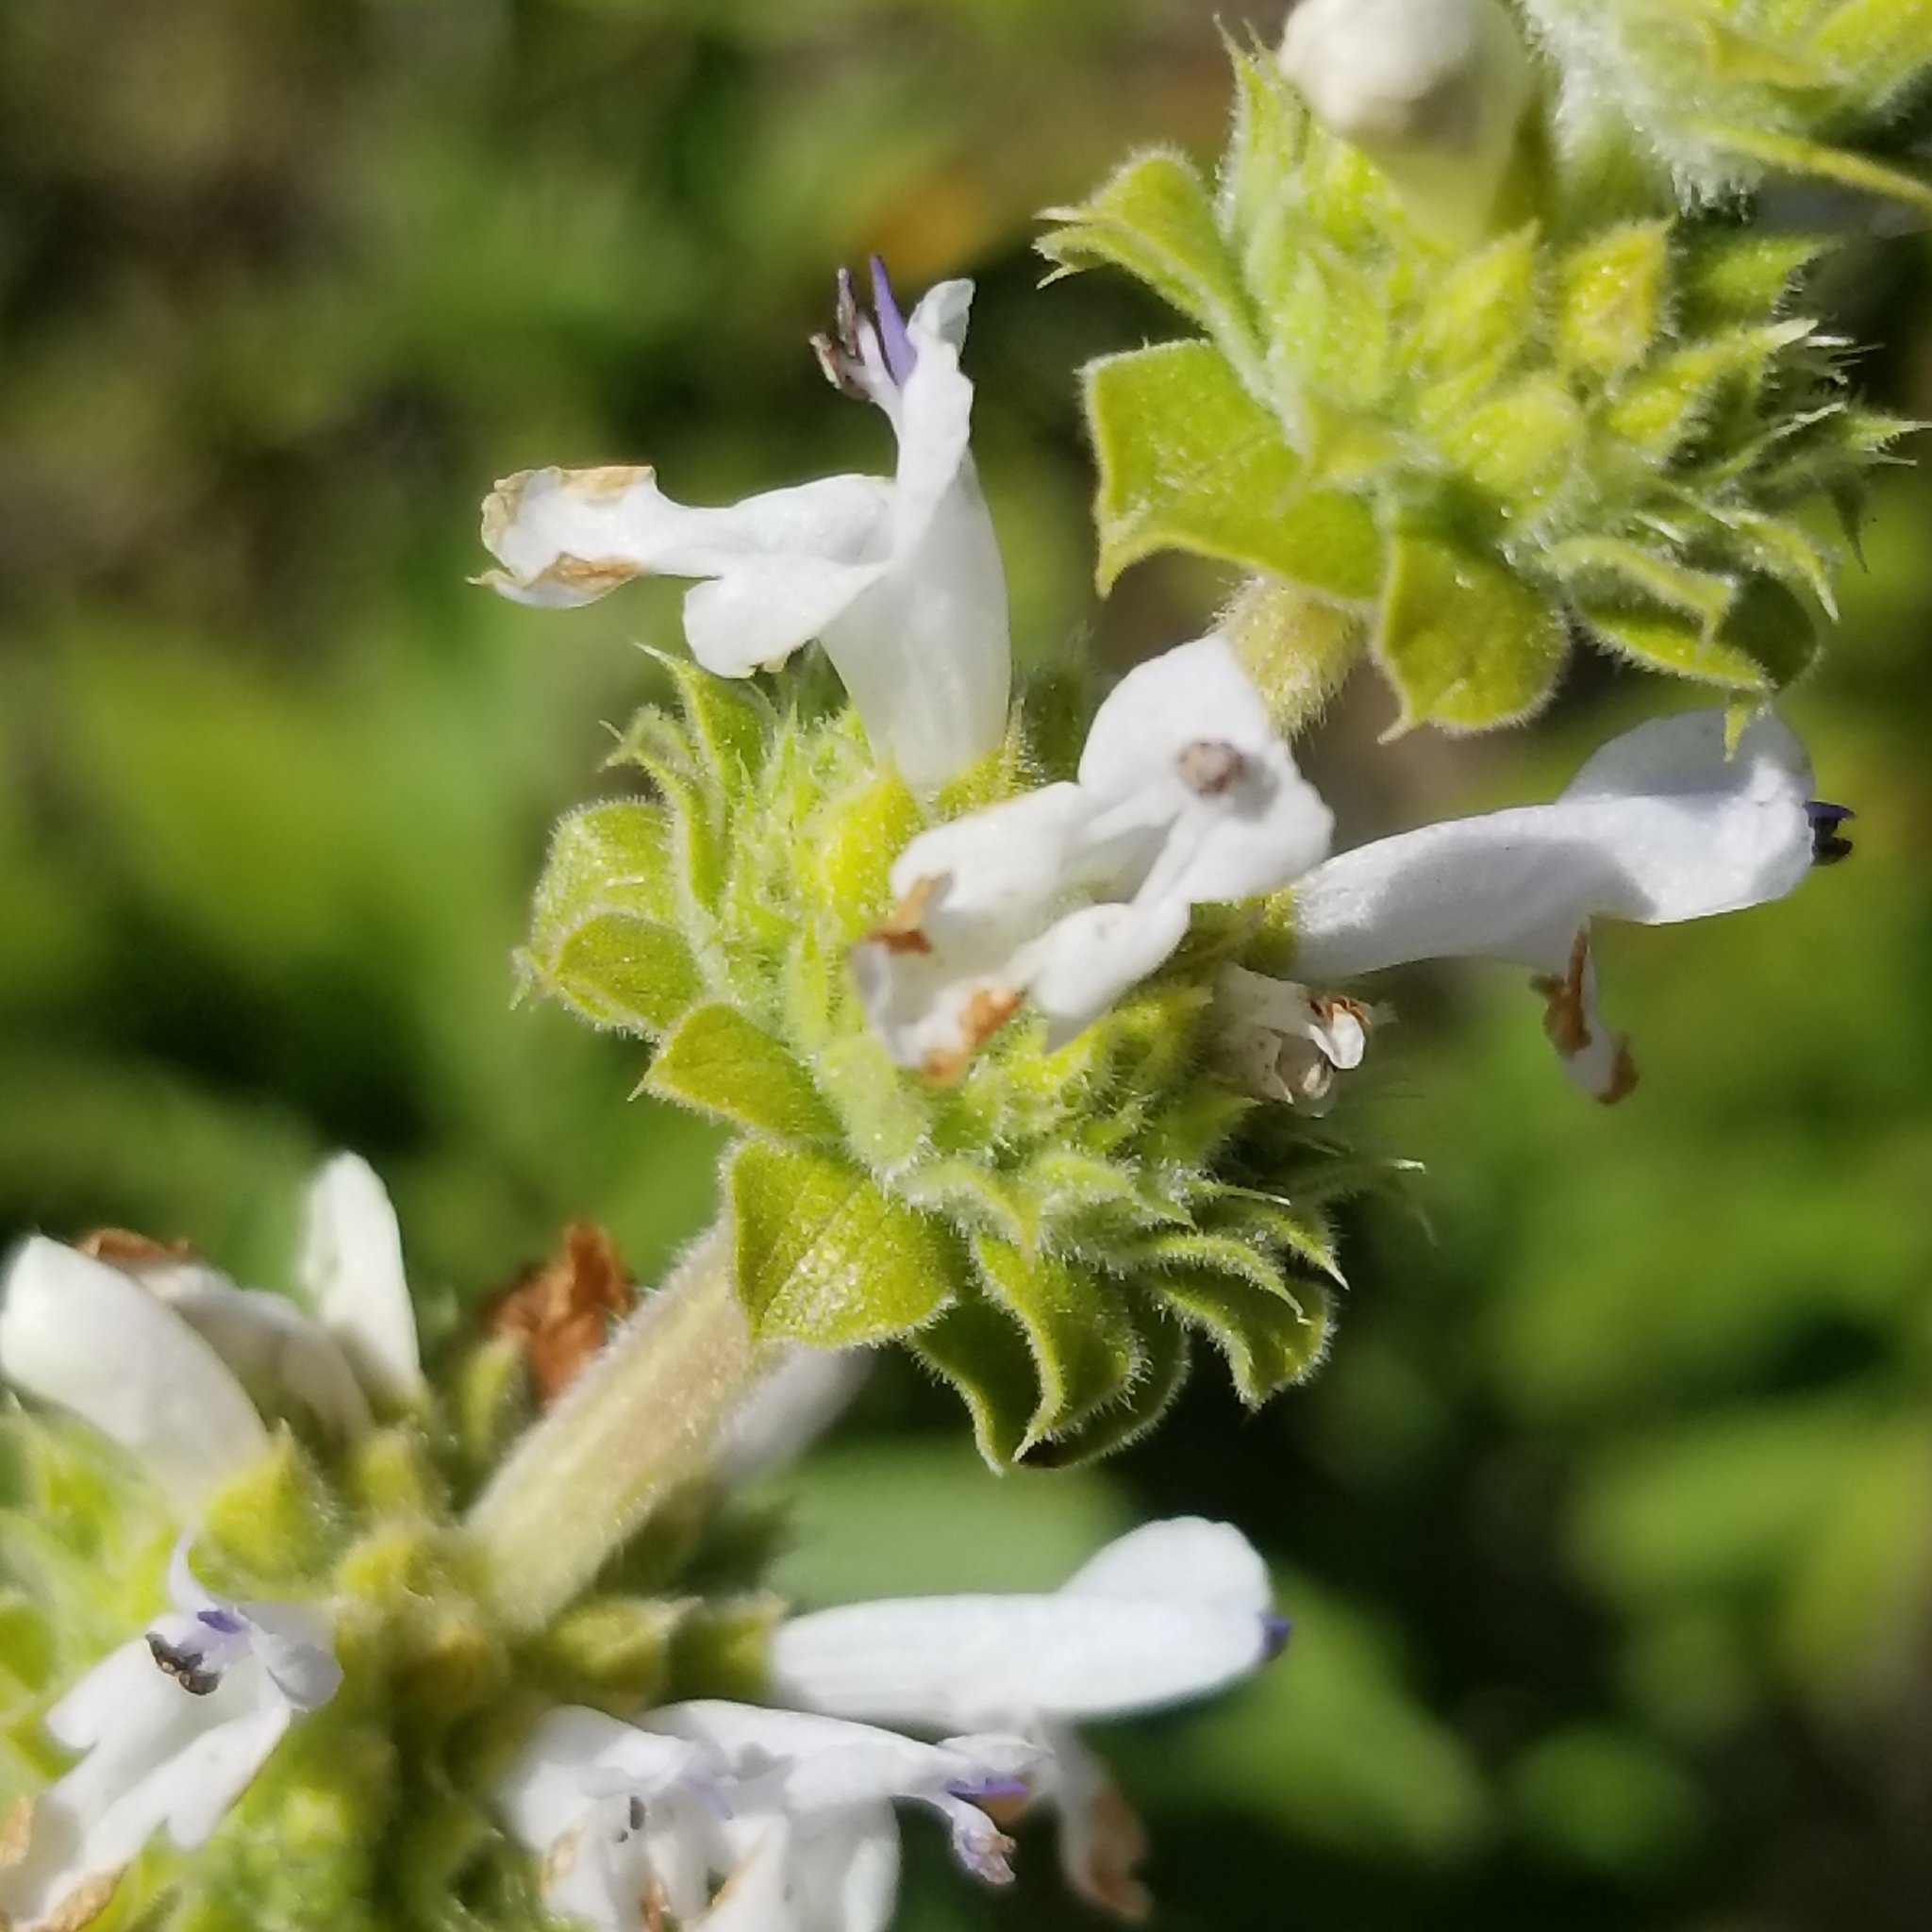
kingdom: Plantae
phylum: Tracheophyta
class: Magnoliopsida
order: Lamiales
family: Lamiaceae
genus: Salvia
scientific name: Salvia mellifera
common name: Black sage
